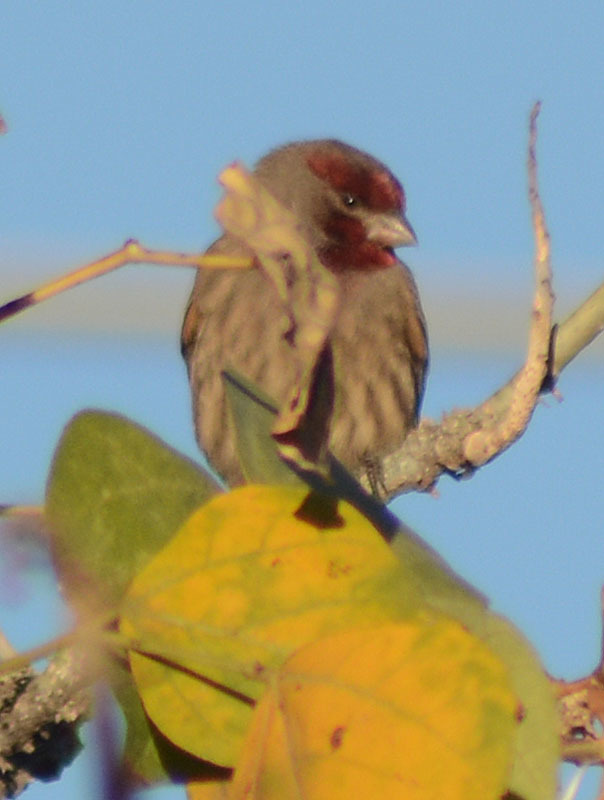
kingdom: Animalia
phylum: Chordata
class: Aves
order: Passeriformes
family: Fringillidae
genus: Haemorhous
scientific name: Haemorhous mexicanus
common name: House finch
